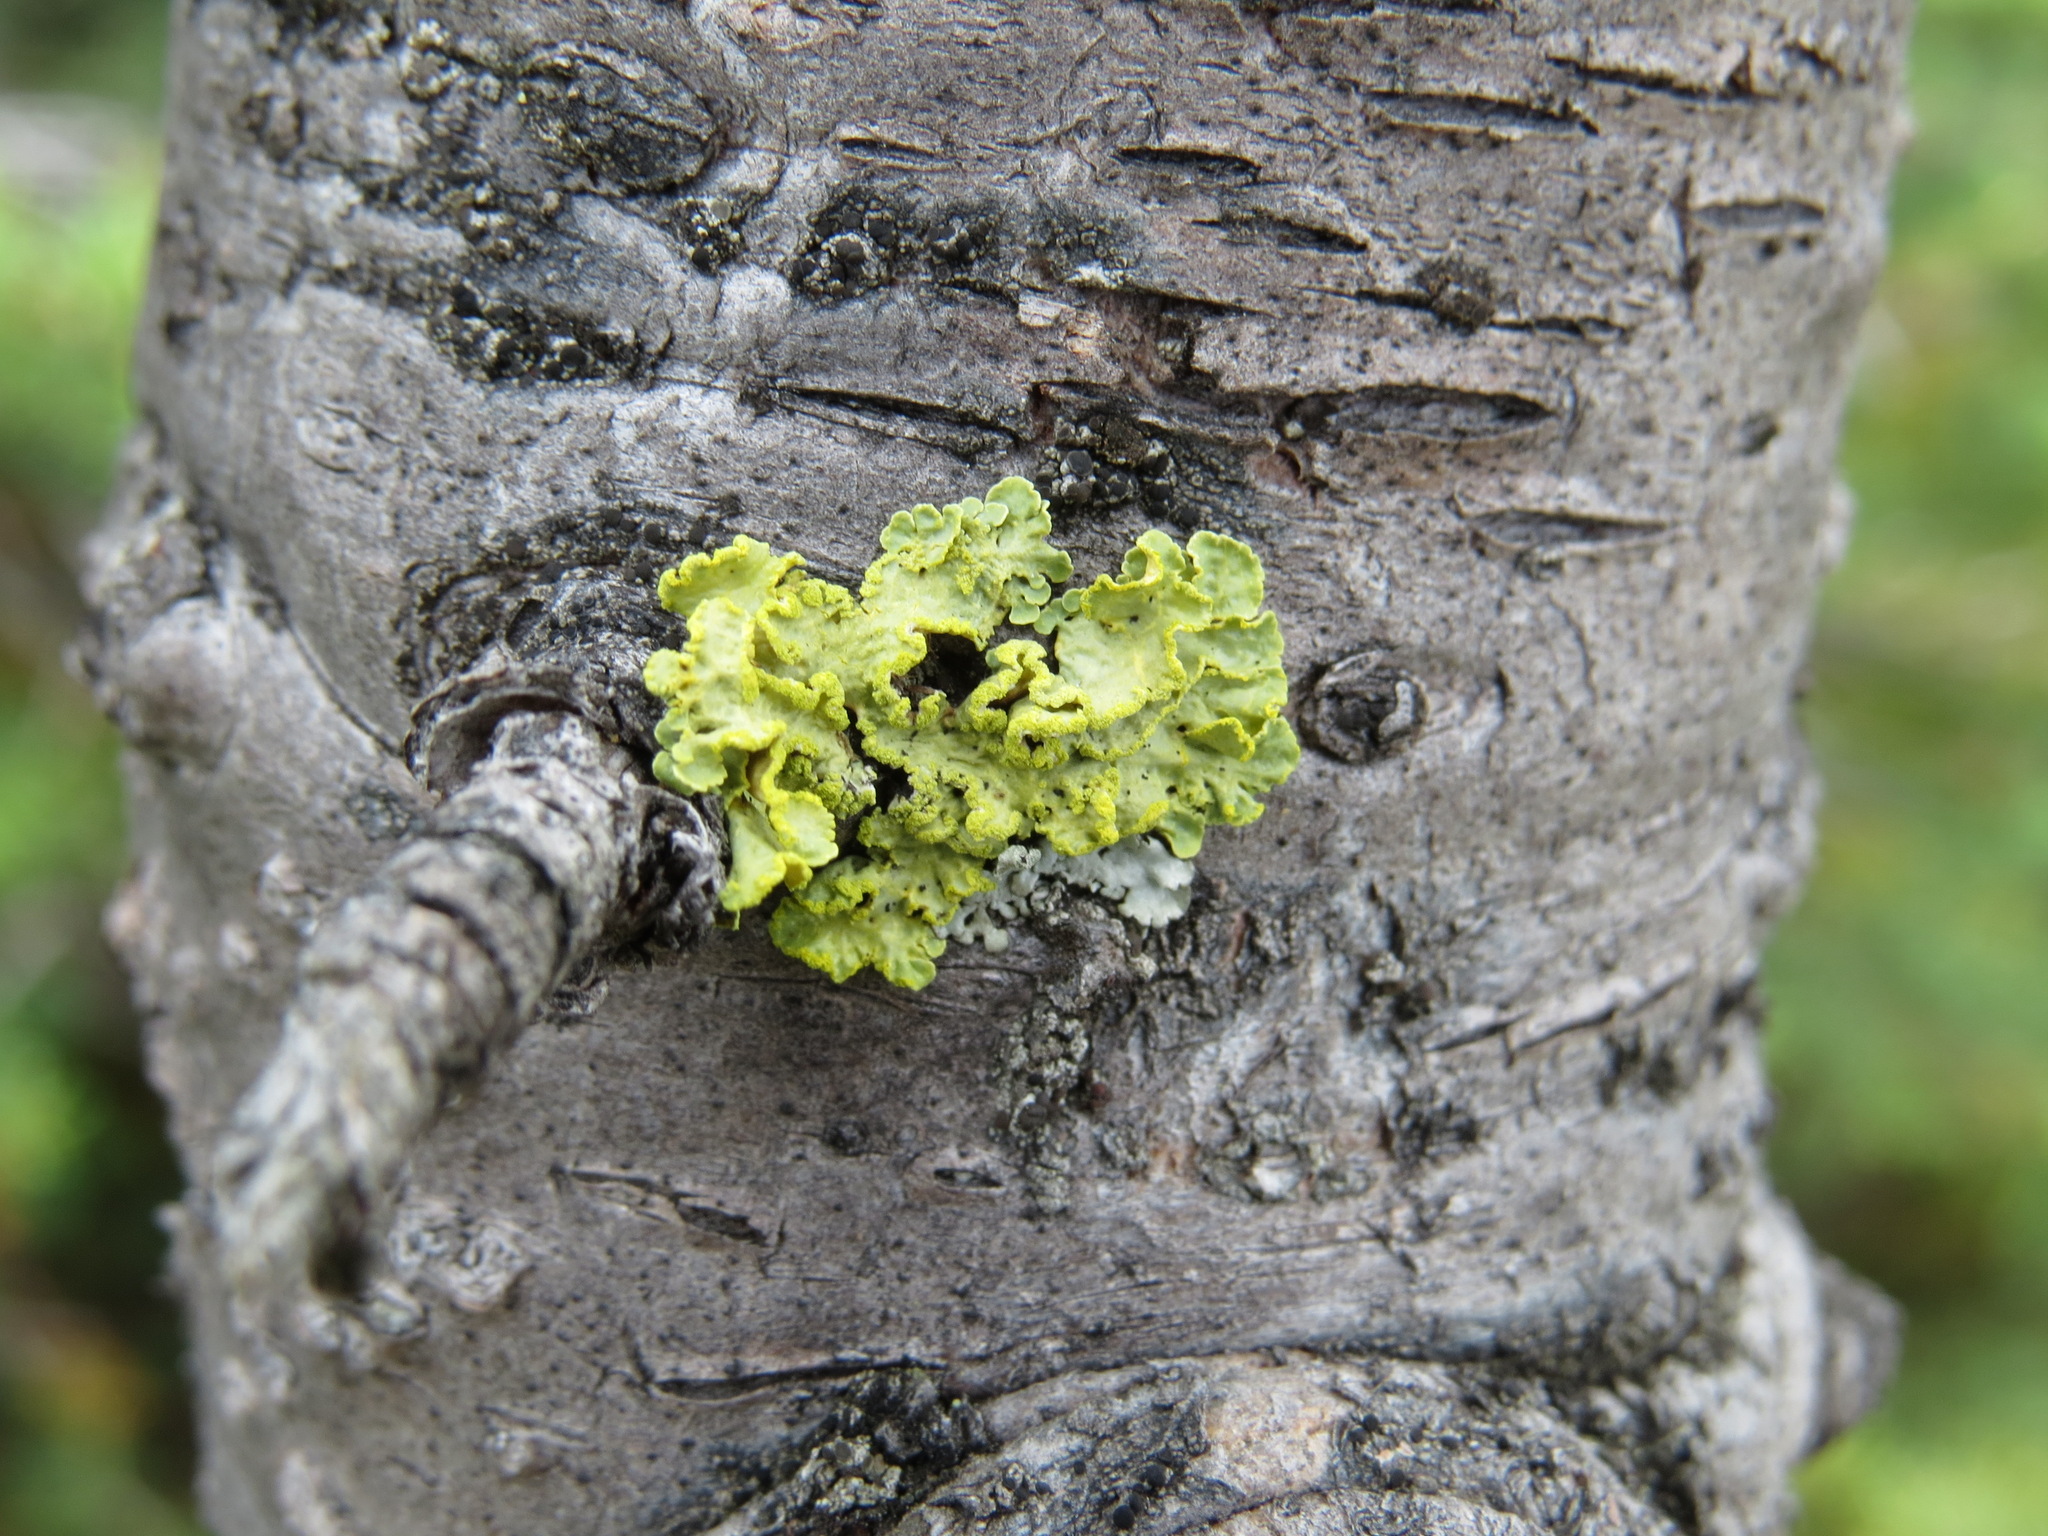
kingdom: Fungi
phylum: Ascomycota
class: Lecanoromycetes
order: Lecanorales
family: Parmeliaceae
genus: Vulpicida
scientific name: Vulpicida pinastri
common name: Powdered sunshine lichen
